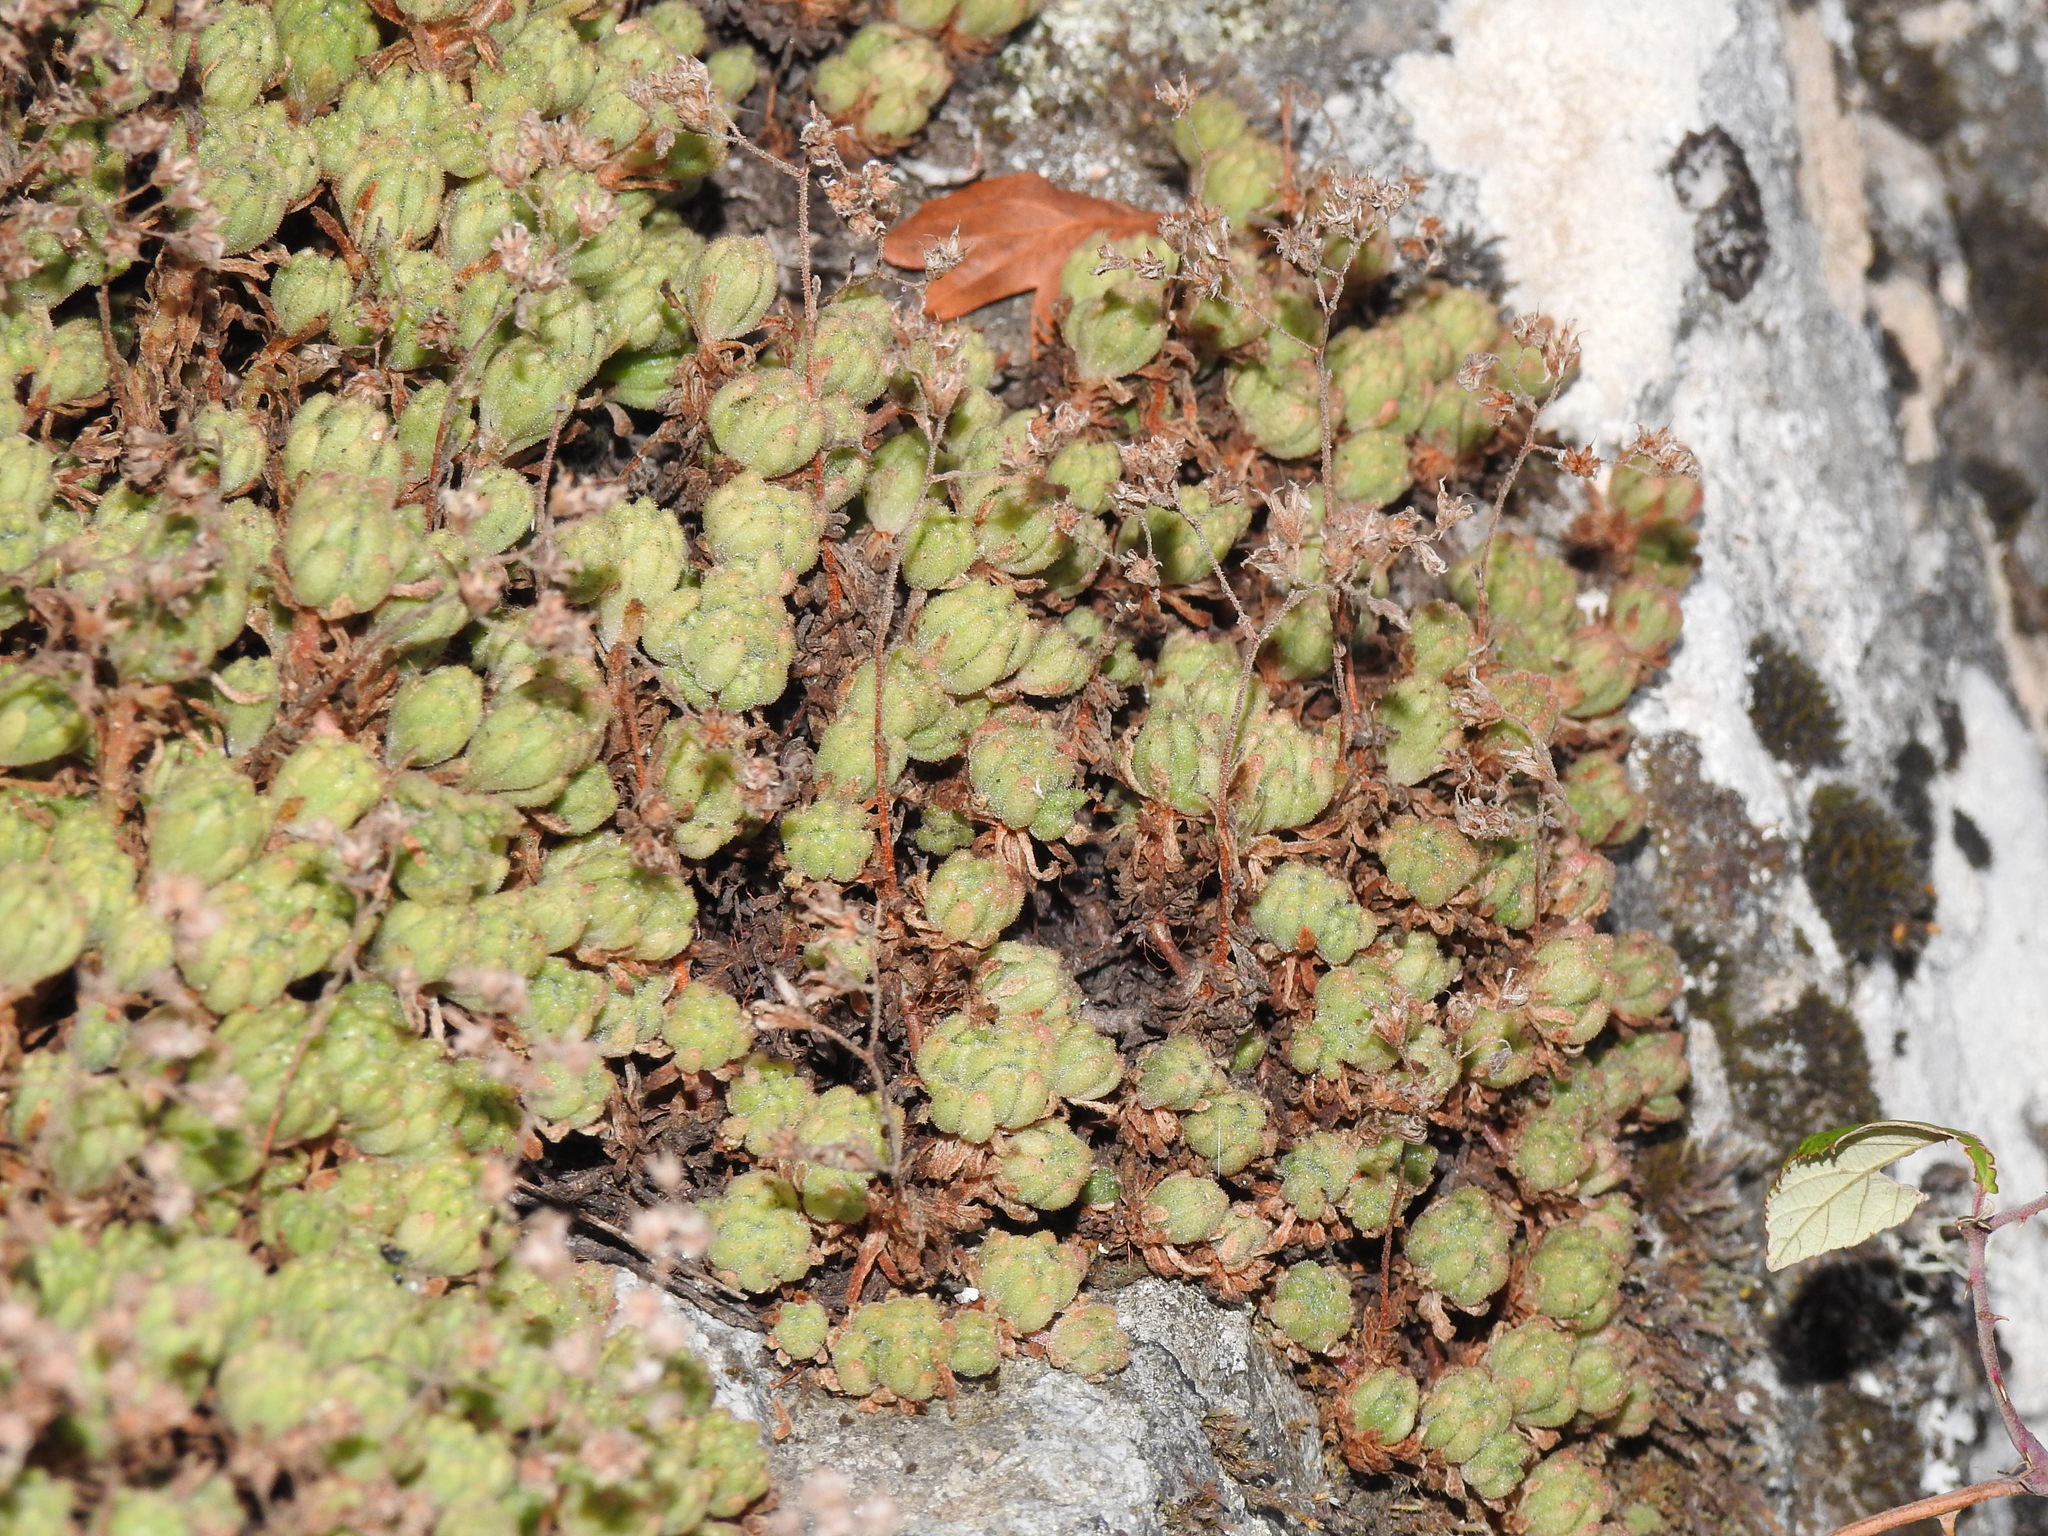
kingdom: Plantae
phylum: Tracheophyta
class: Magnoliopsida
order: Saxifragales
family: Crassulaceae
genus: Sedum
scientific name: Sedum hirsutum
